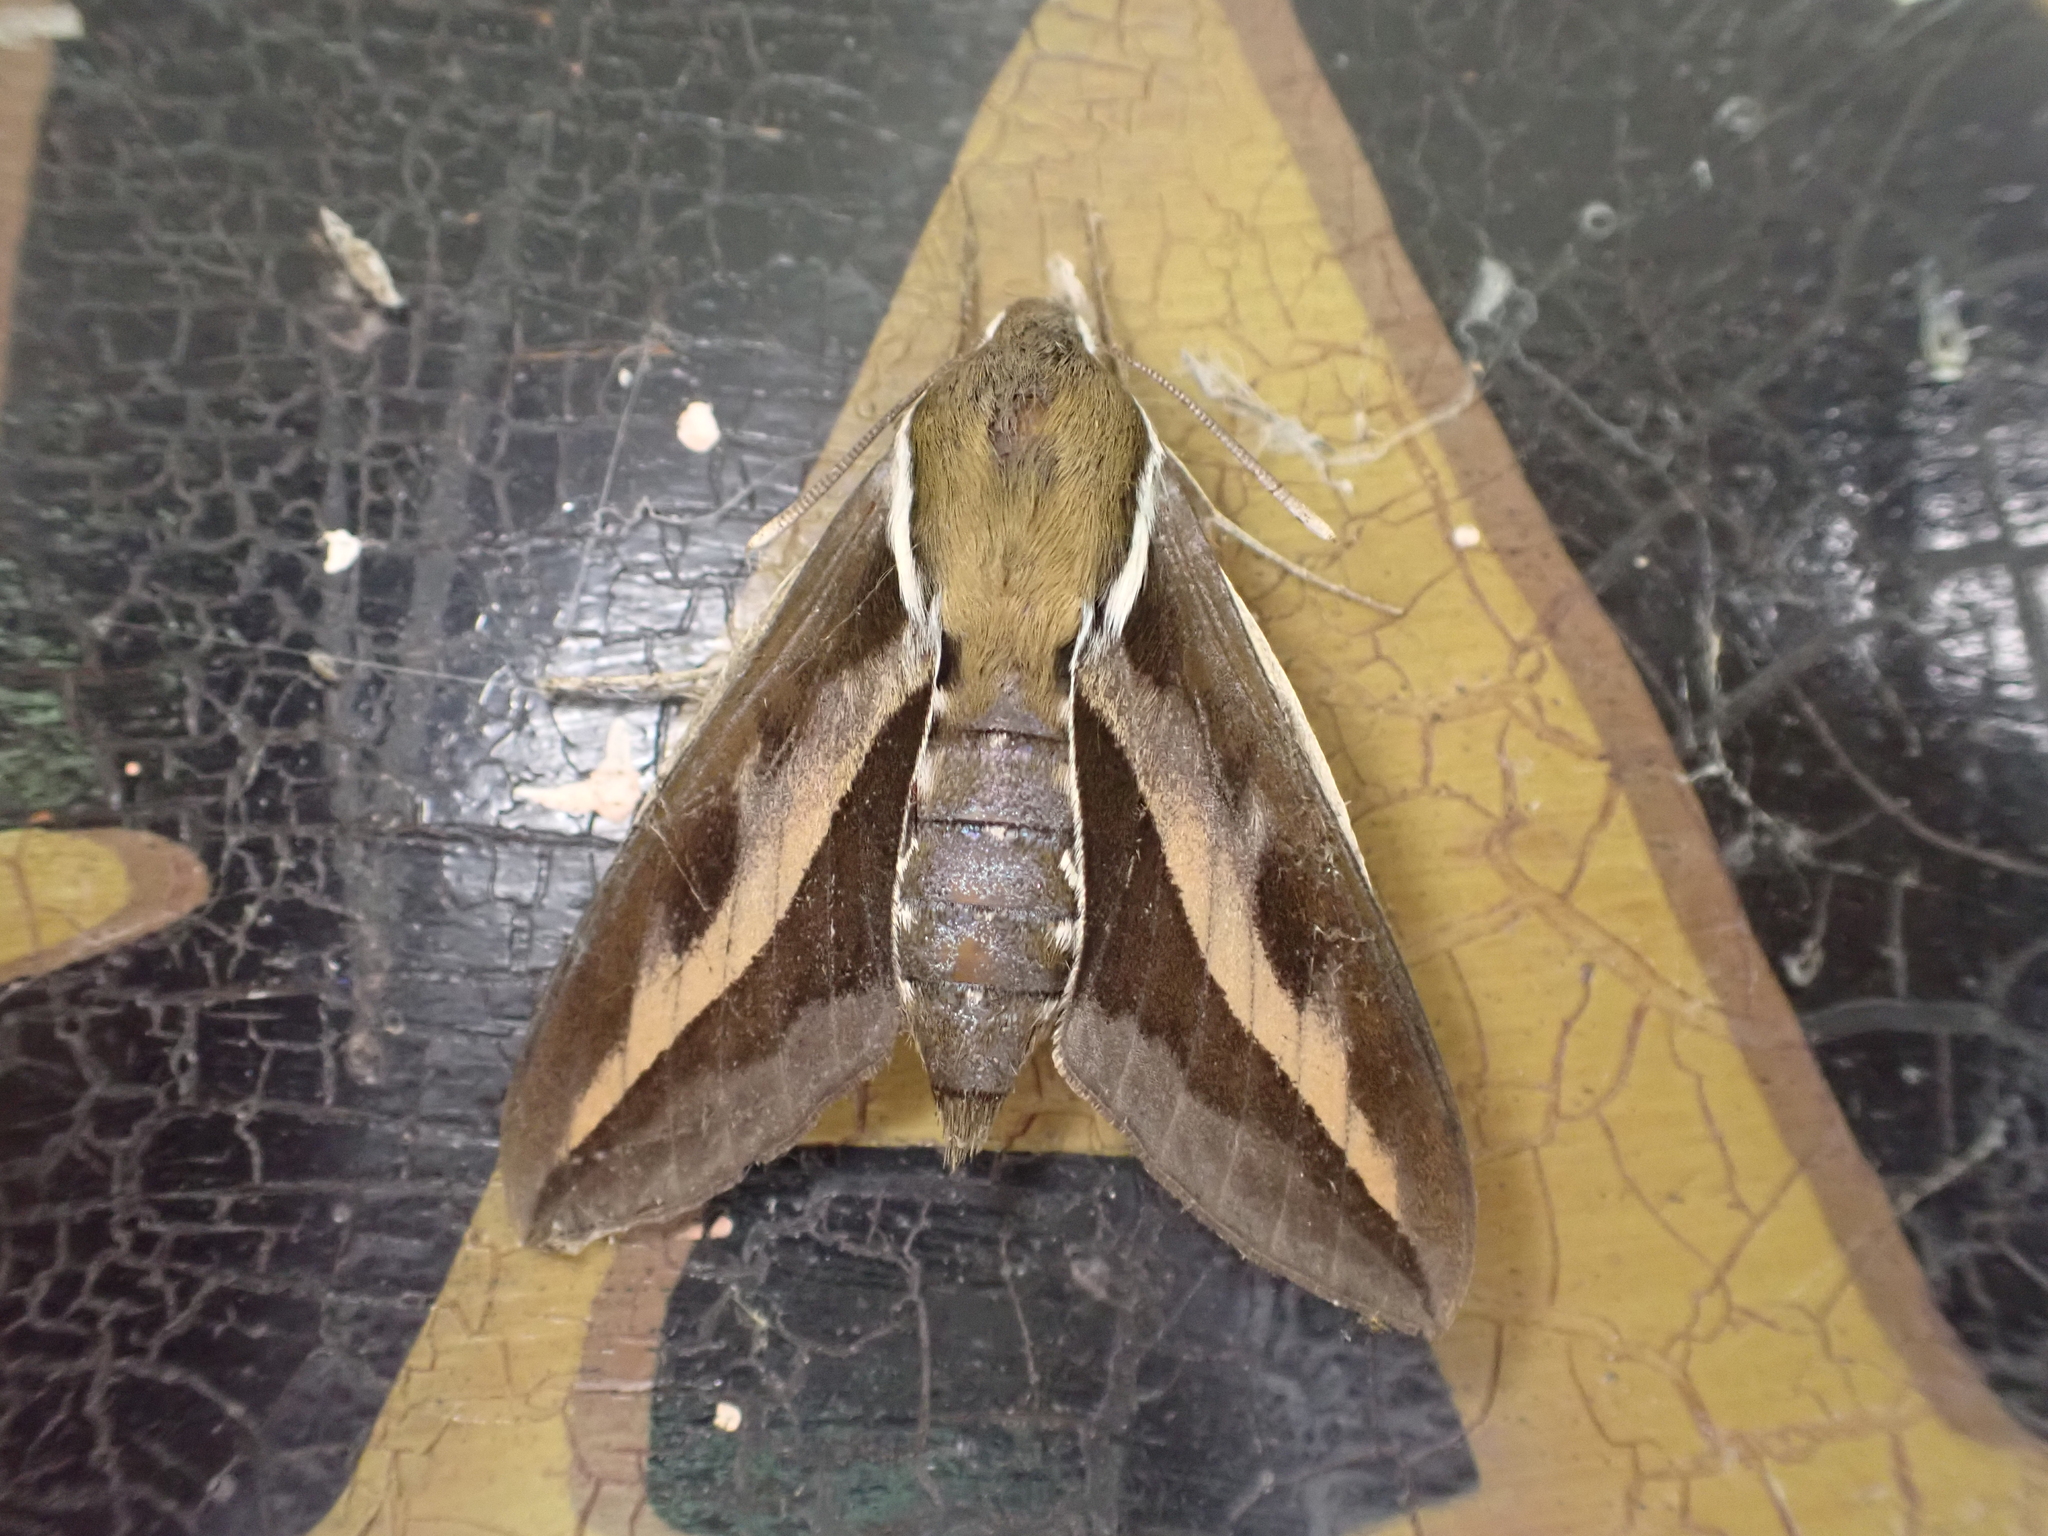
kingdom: Animalia
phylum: Arthropoda
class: Insecta
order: Lepidoptera
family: Sphingidae
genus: Hyles
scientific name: Hyles gallii
